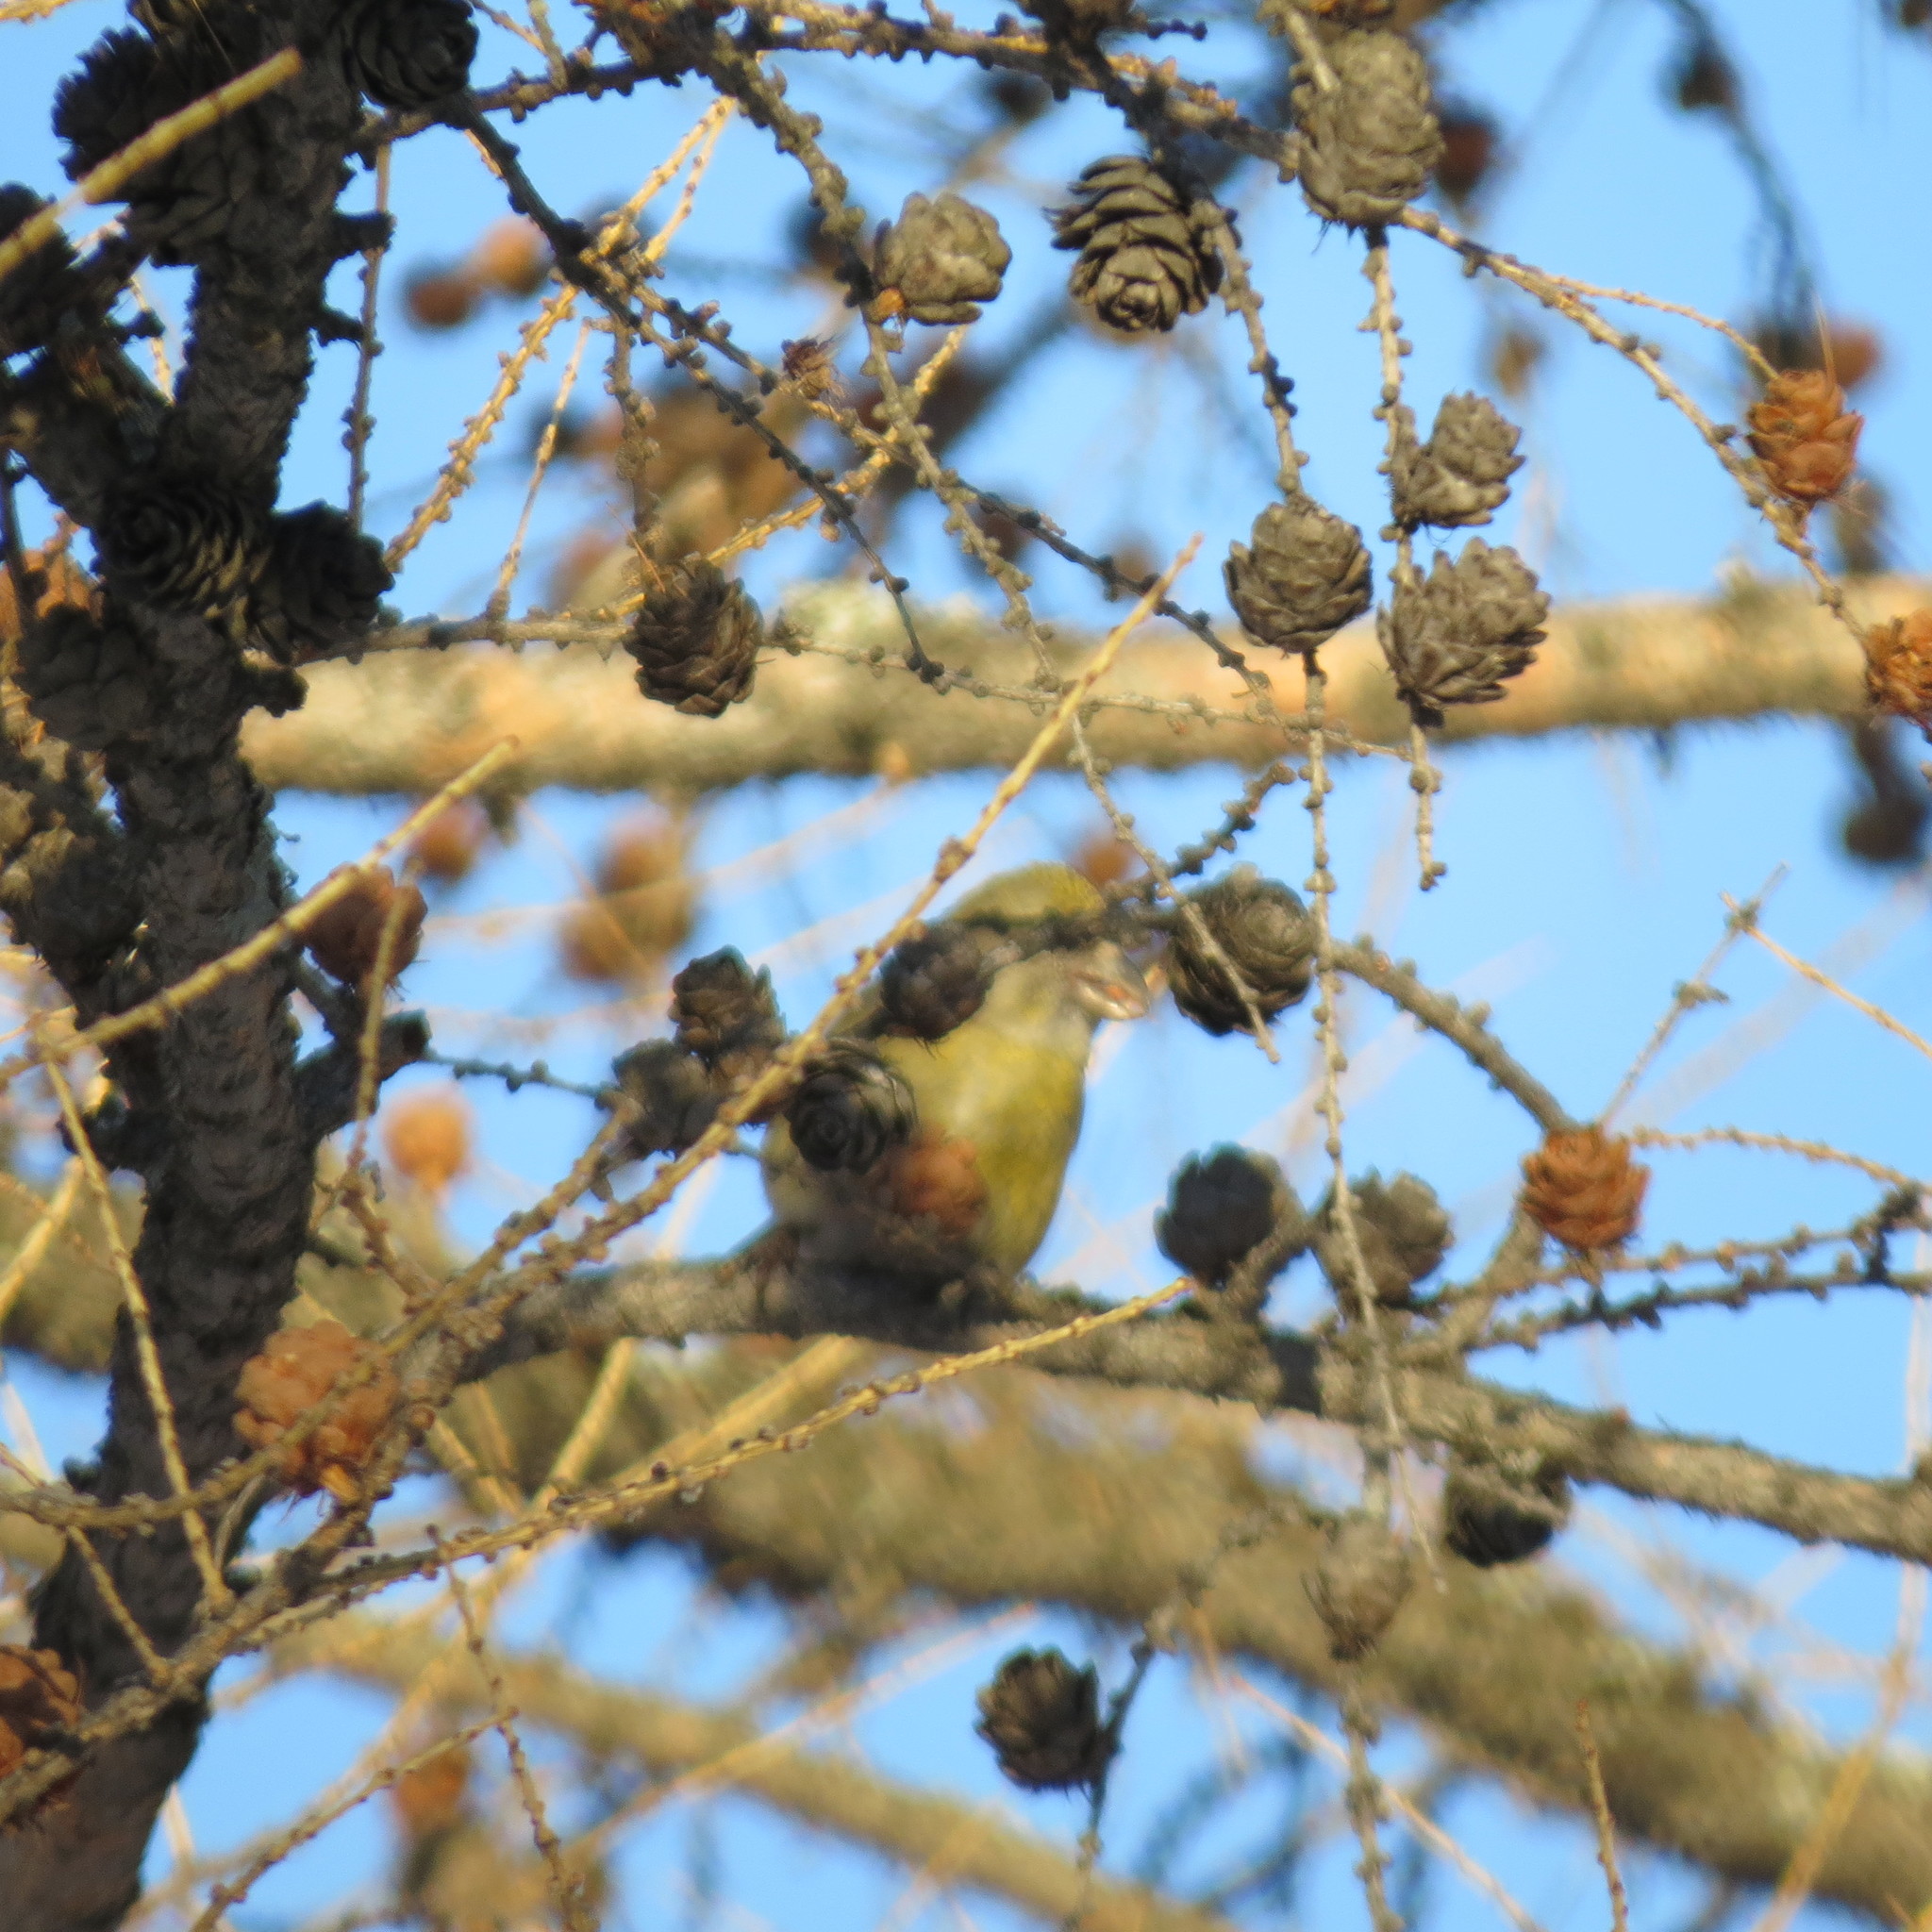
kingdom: Animalia
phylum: Chordata
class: Aves
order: Passeriformes
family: Fringillidae
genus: Loxia
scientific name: Loxia curvirostra
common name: Red crossbill
